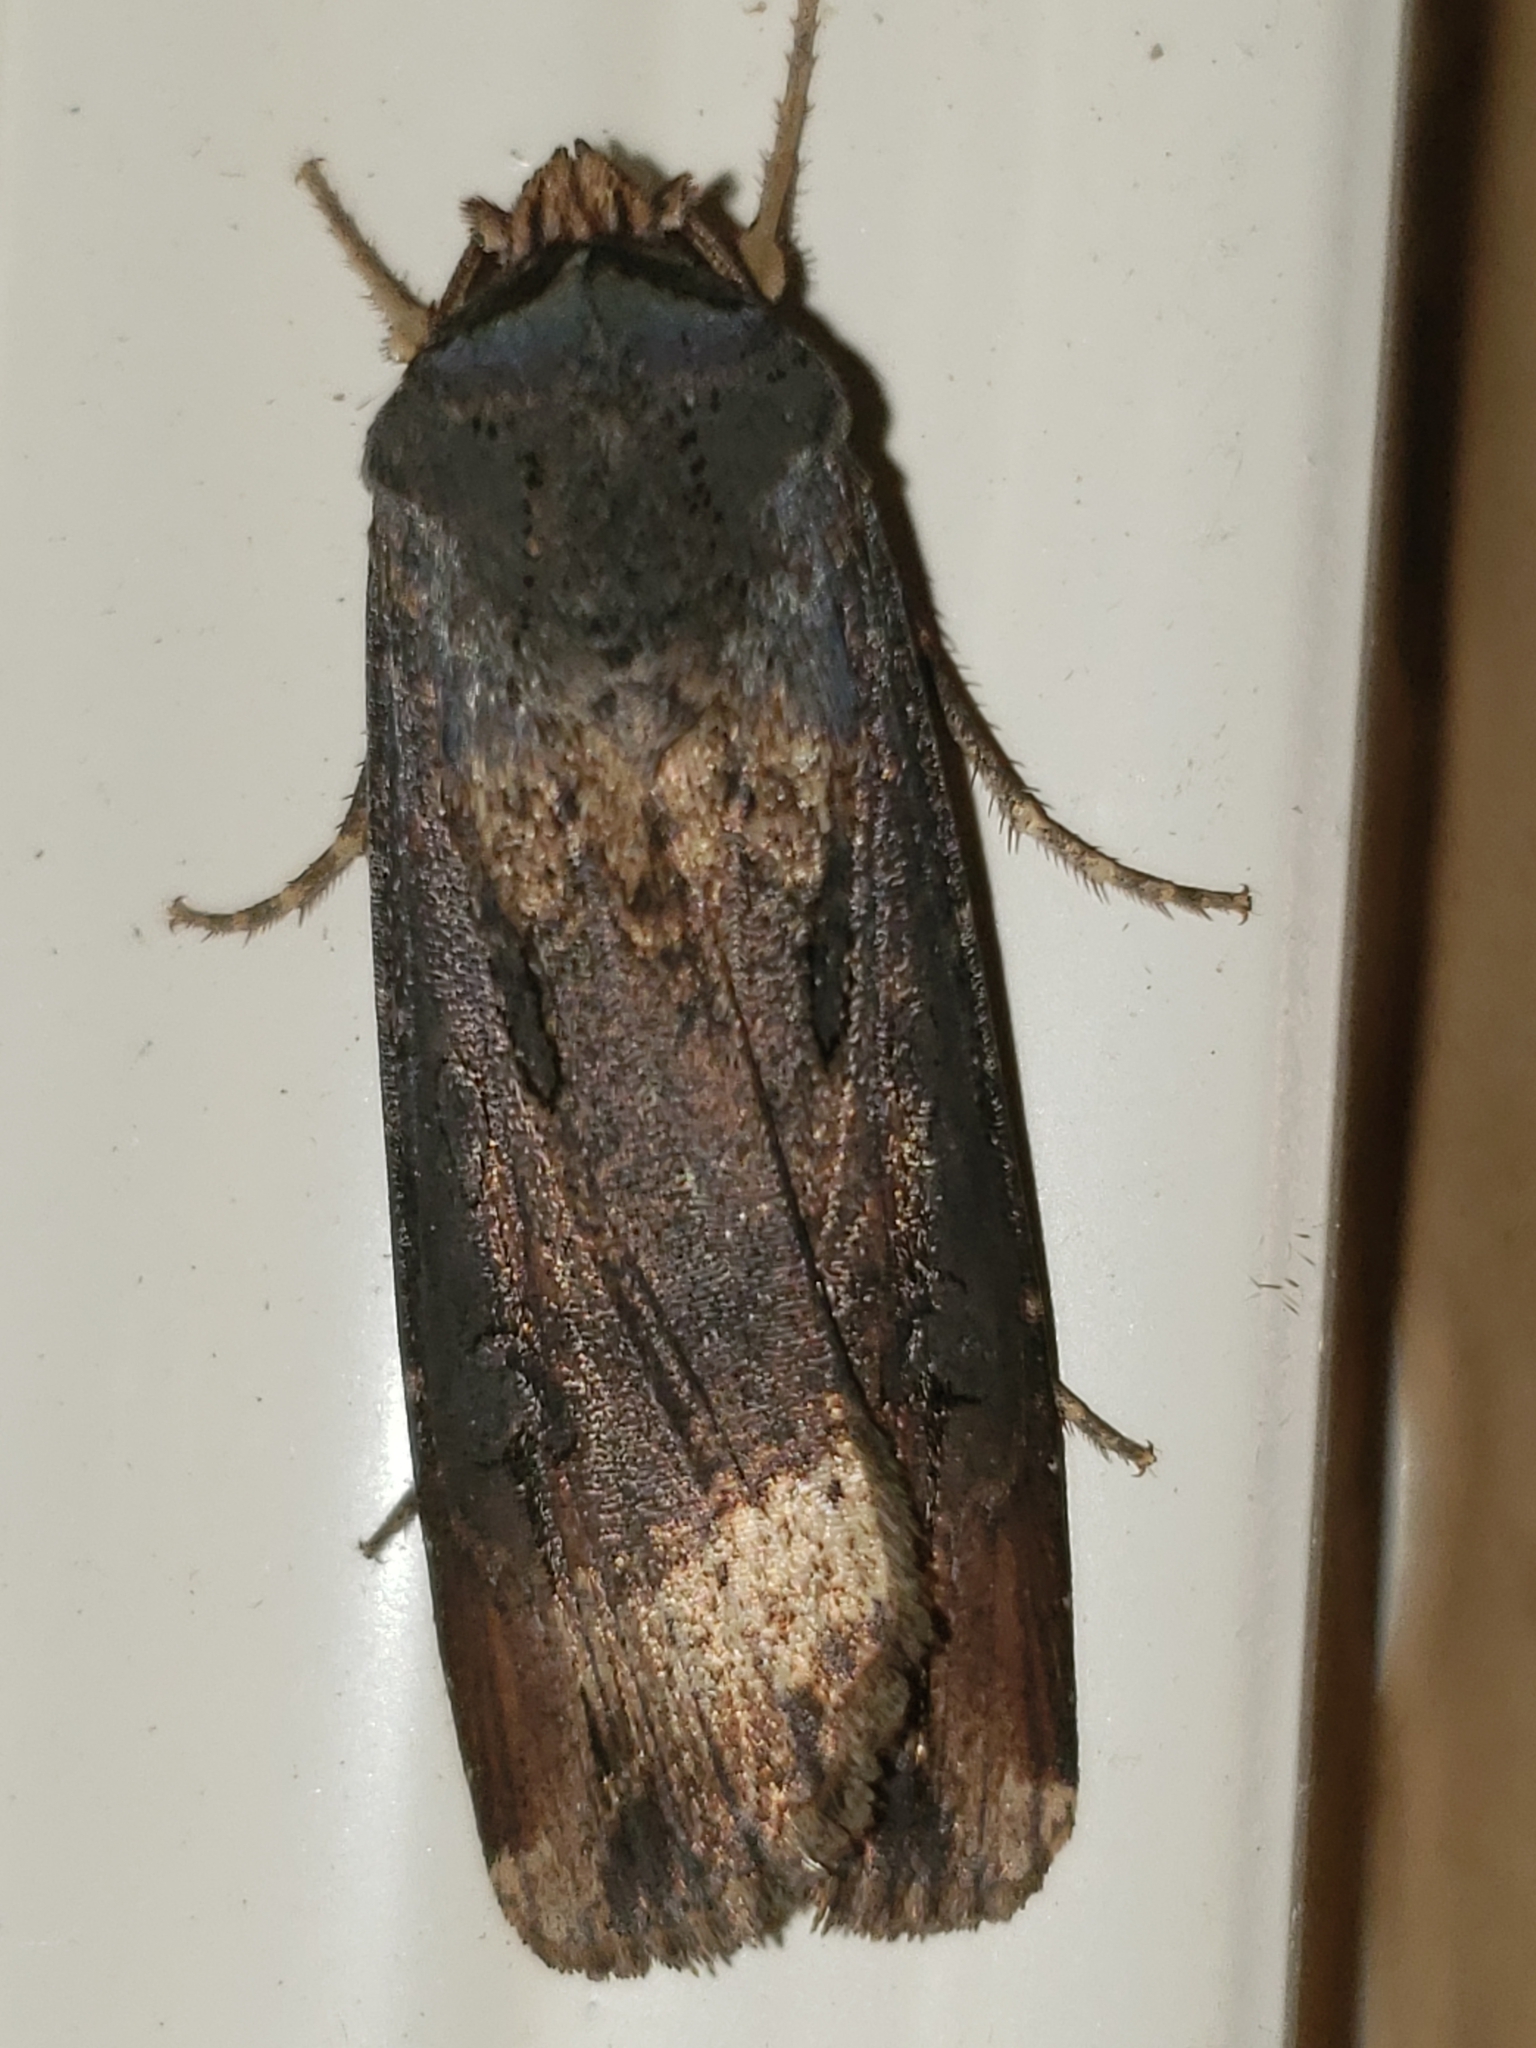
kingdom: Animalia
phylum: Arthropoda
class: Insecta
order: Lepidoptera
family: Noctuidae
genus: Agrotis
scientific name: Agrotis ipsilon
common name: Dark sword-grass
